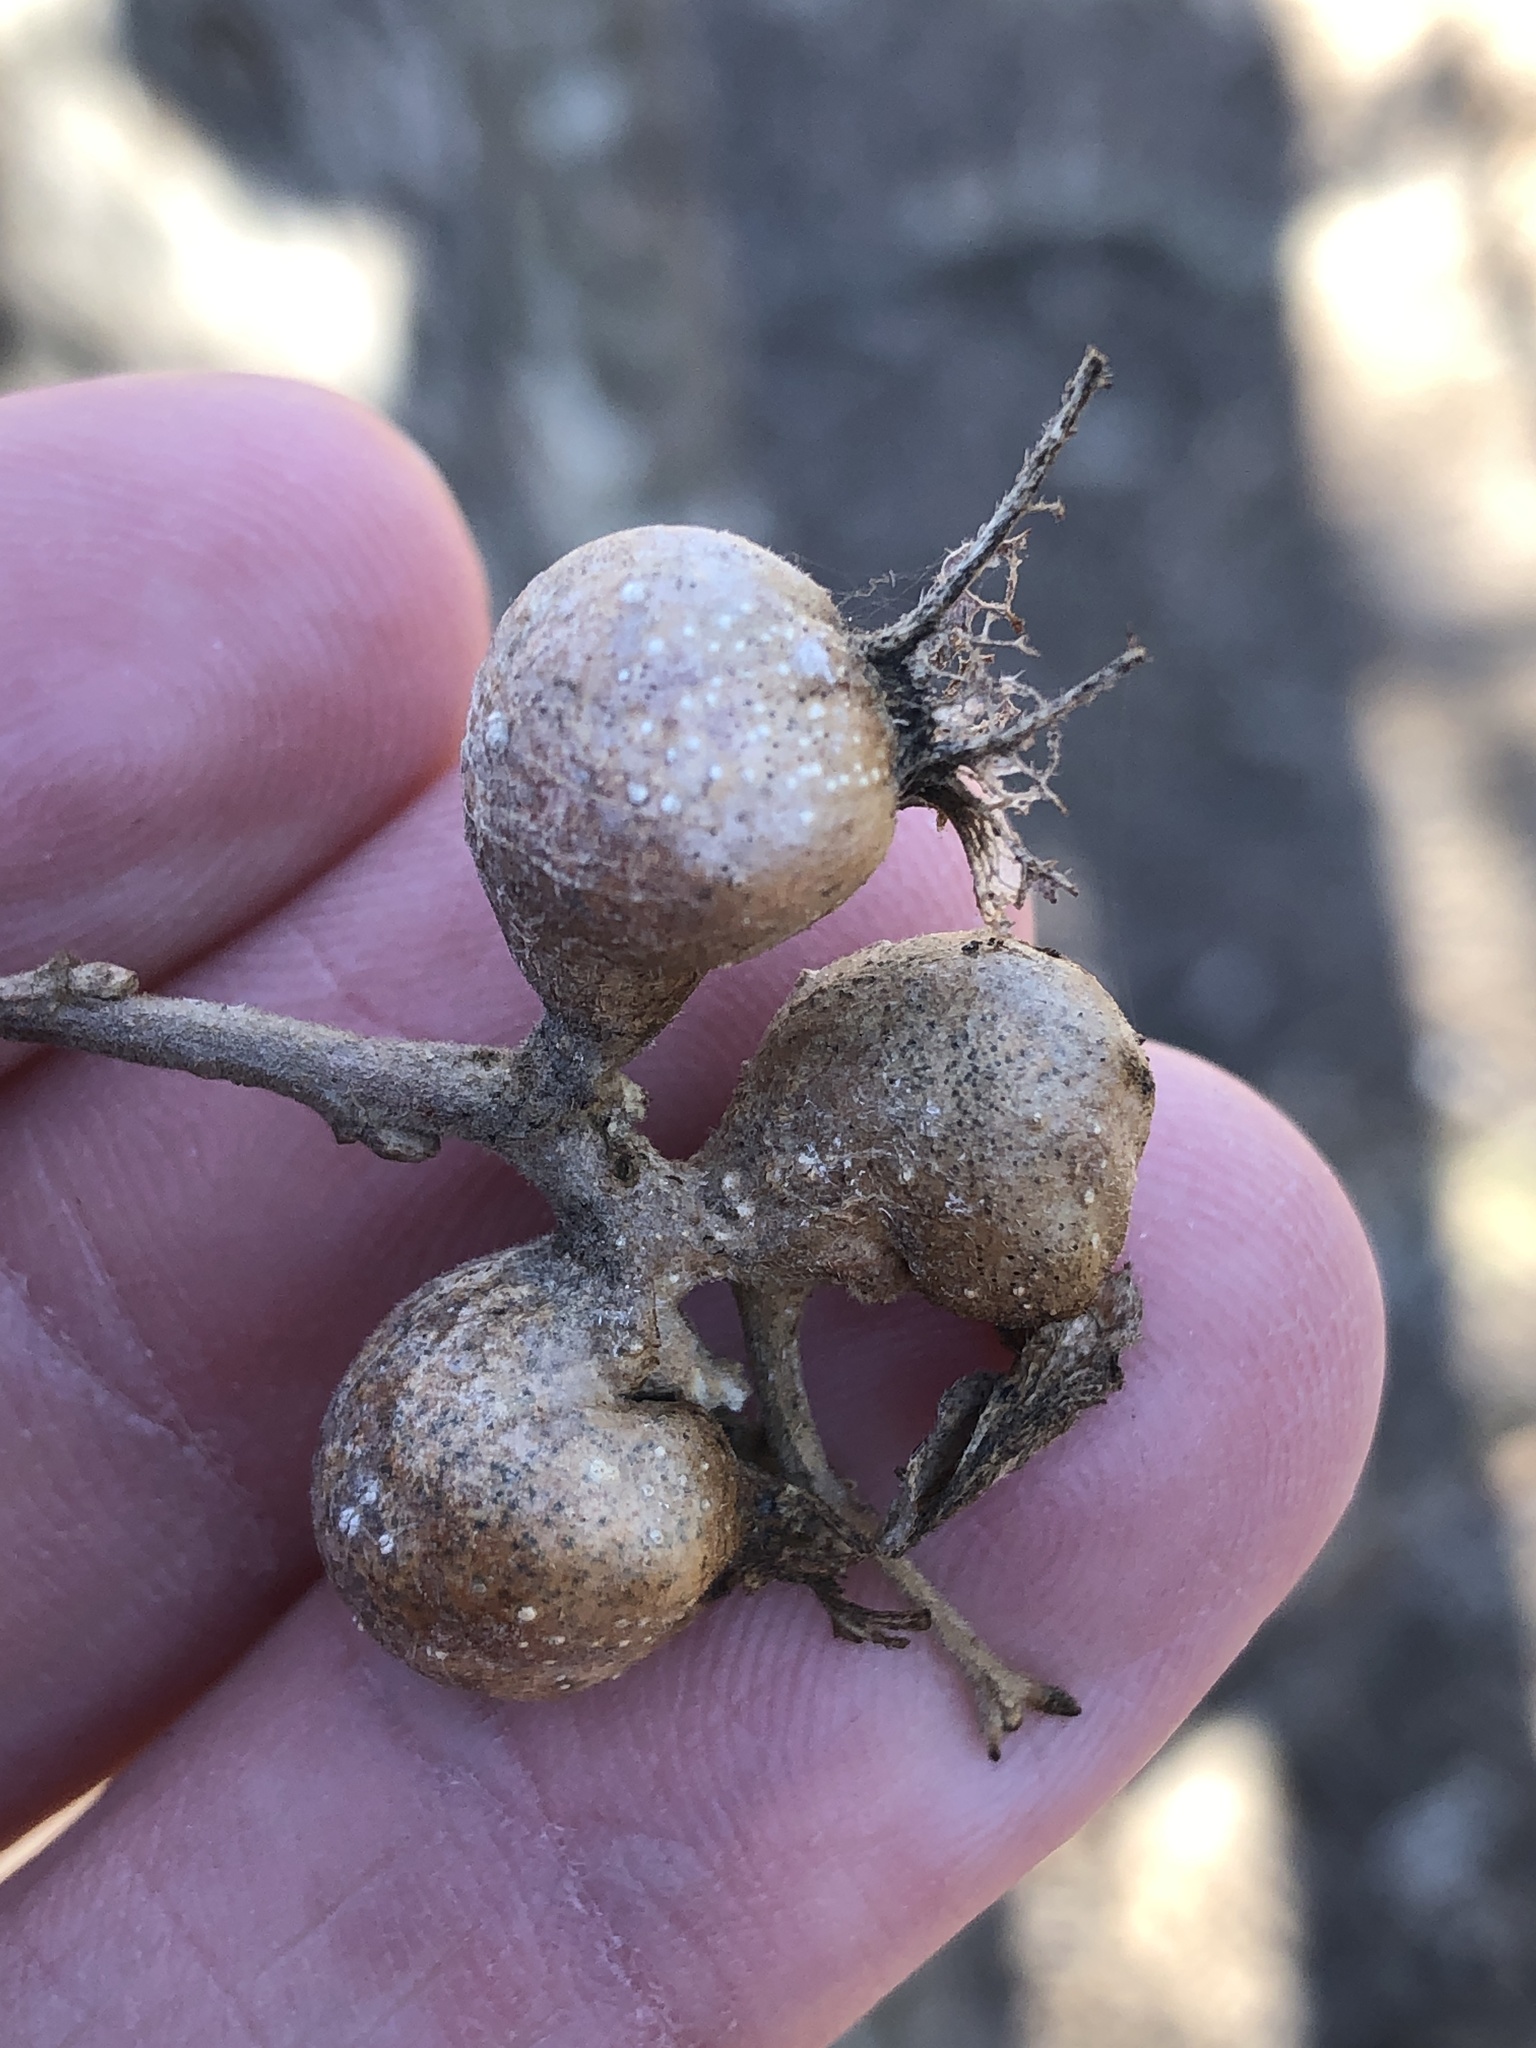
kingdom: Animalia
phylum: Arthropoda
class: Insecta
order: Hemiptera
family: Aphalaridae
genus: Pachypsylla
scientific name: Pachypsylla venusta
